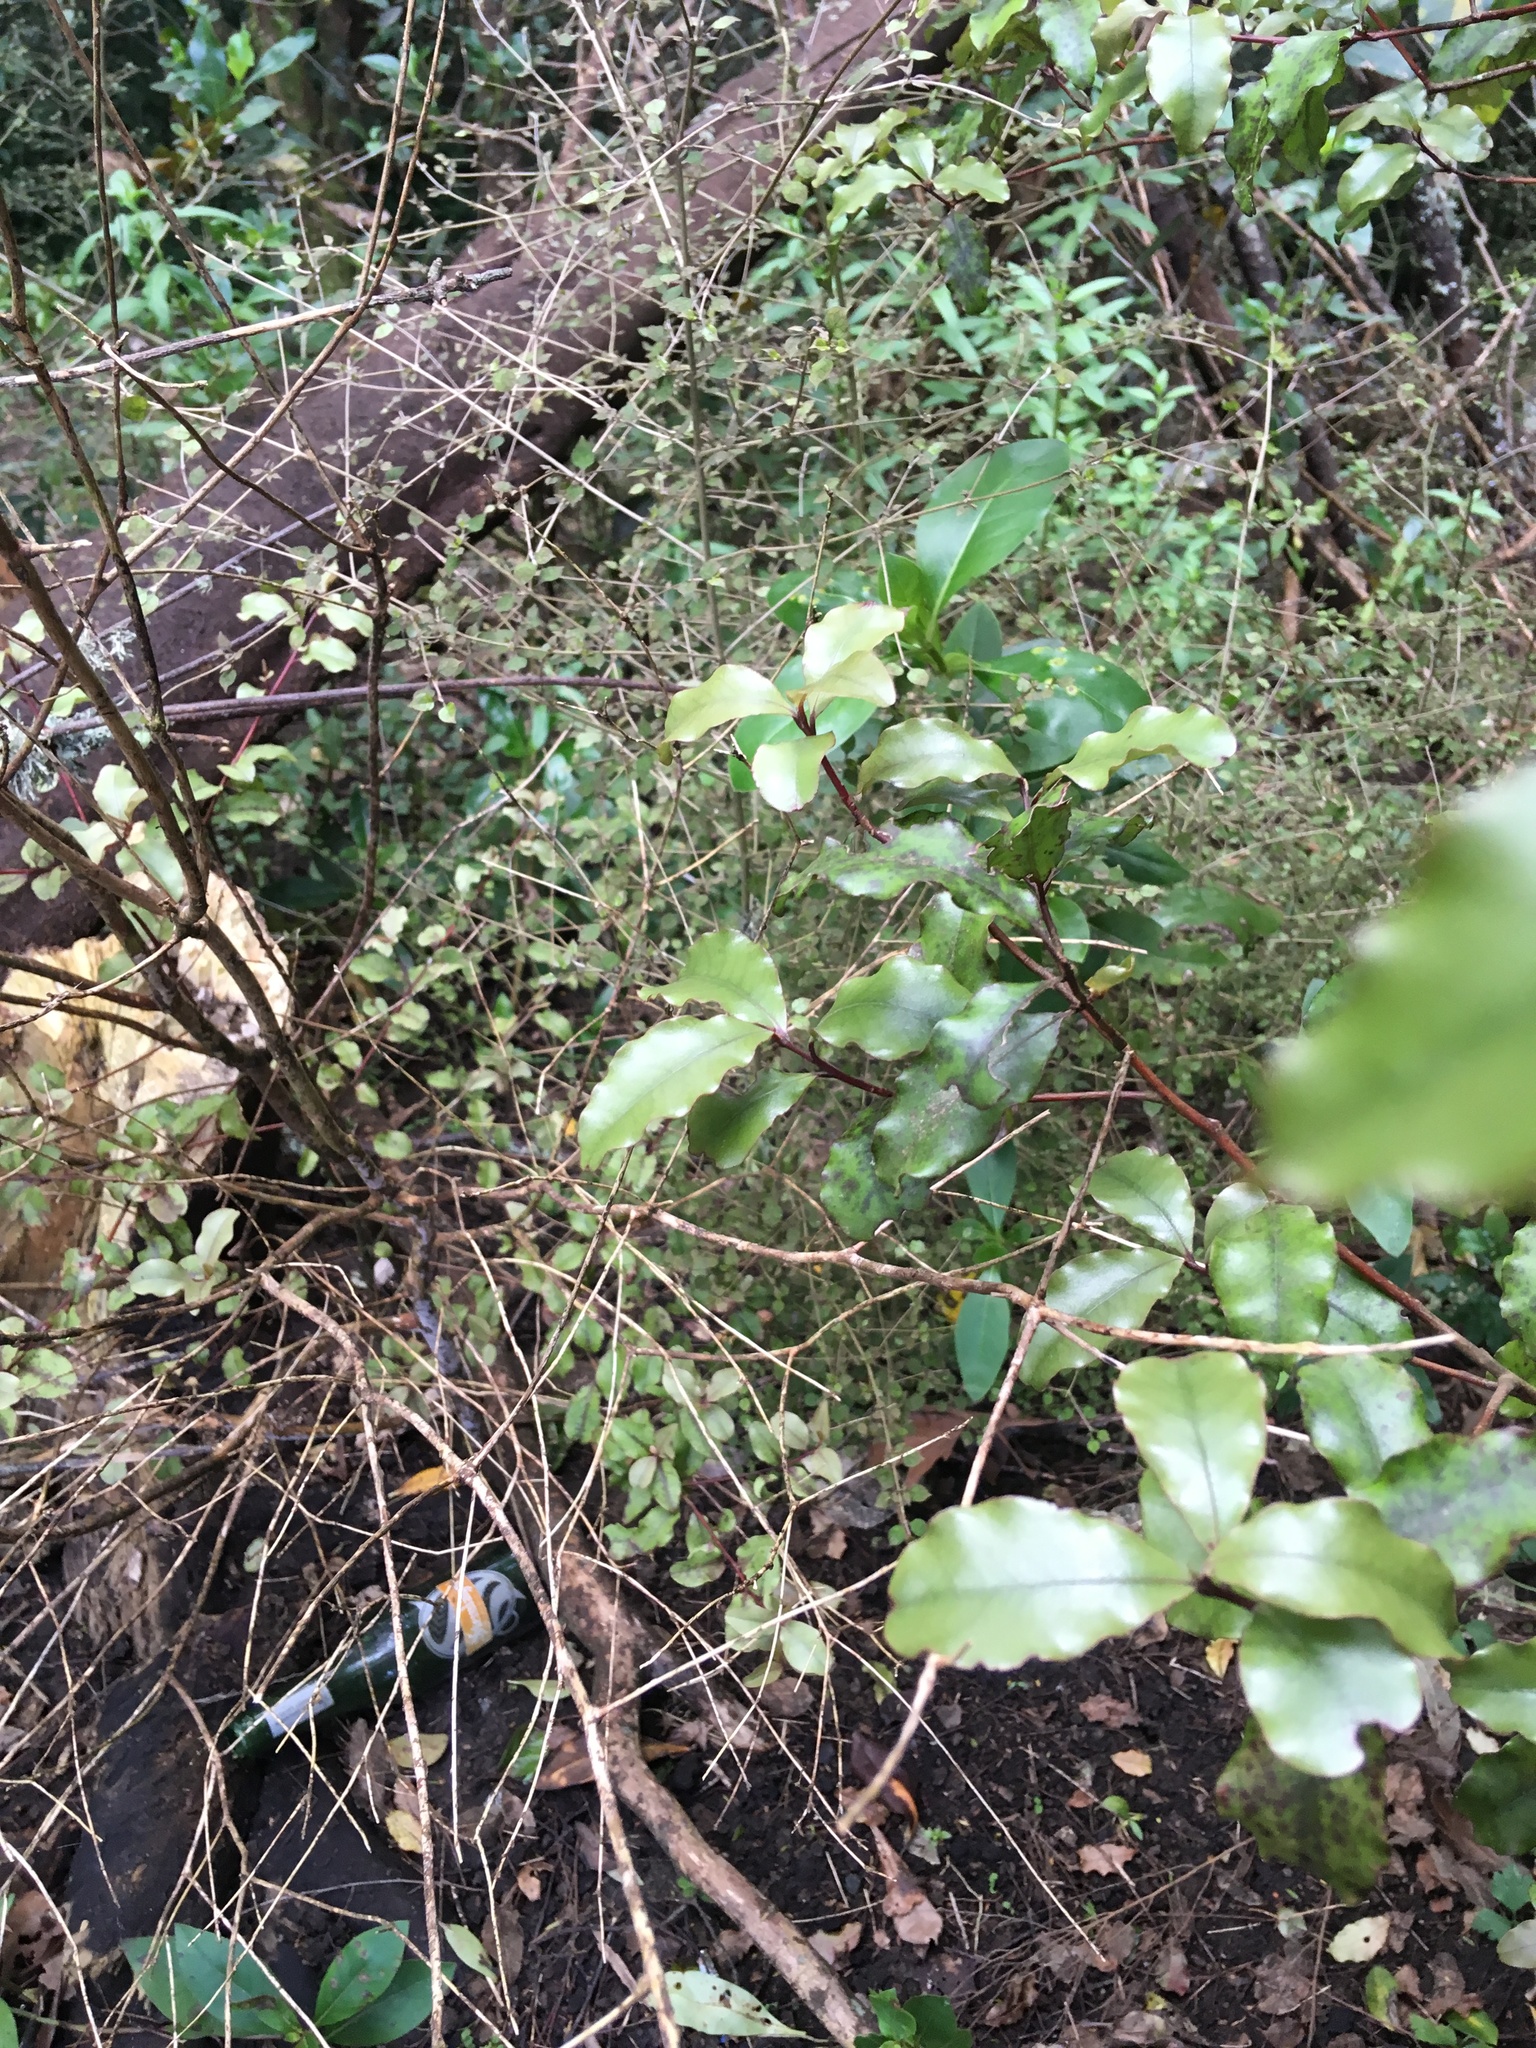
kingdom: Plantae
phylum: Tracheophyta
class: Magnoliopsida
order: Ericales
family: Primulaceae
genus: Myrsine
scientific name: Myrsine australis
